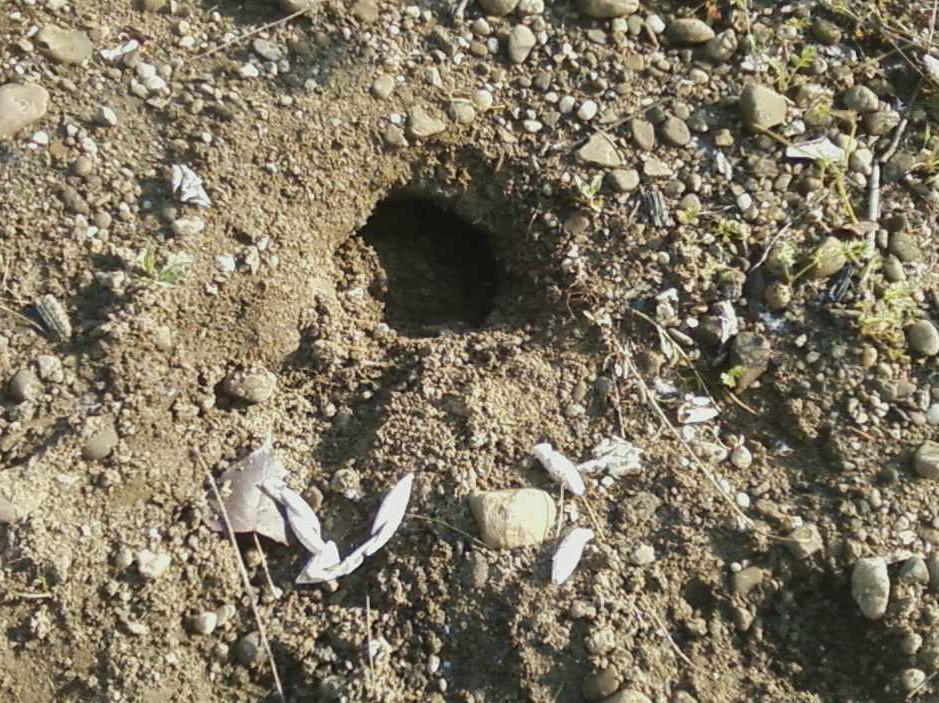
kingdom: Animalia
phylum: Chordata
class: Testudines
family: Chelydridae
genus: Chelydra
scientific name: Chelydra serpentina
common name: Common snapping turtle
